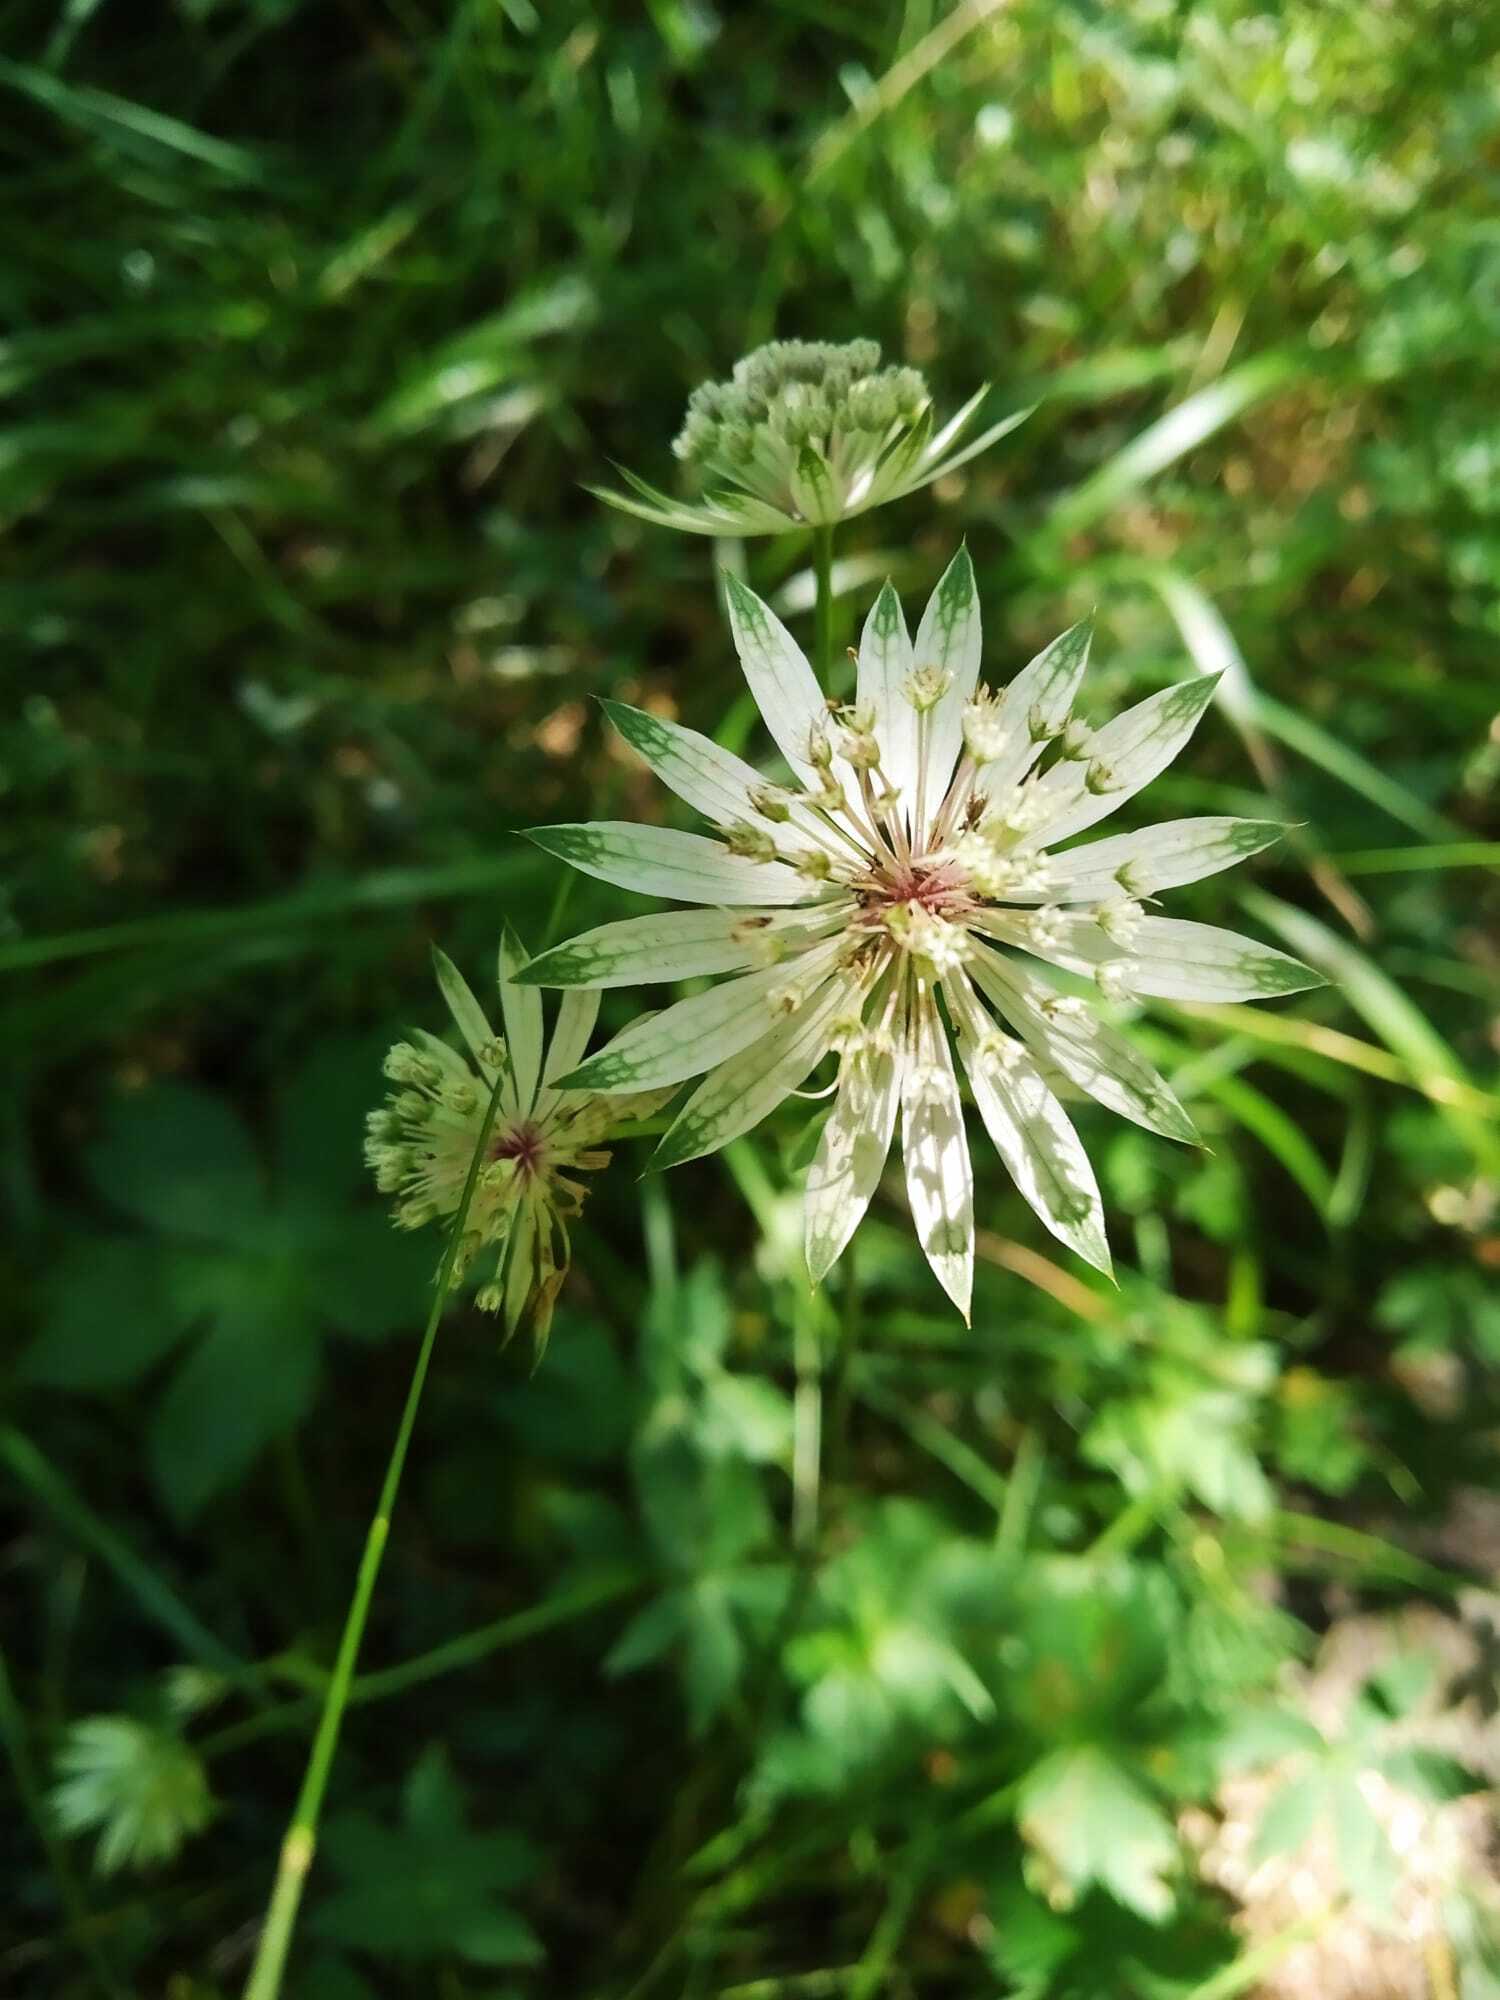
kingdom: Plantae
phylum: Tracheophyta
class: Magnoliopsida
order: Apiales
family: Apiaceae
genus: Astrantia
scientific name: Astrantia major
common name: Greater masterwort
